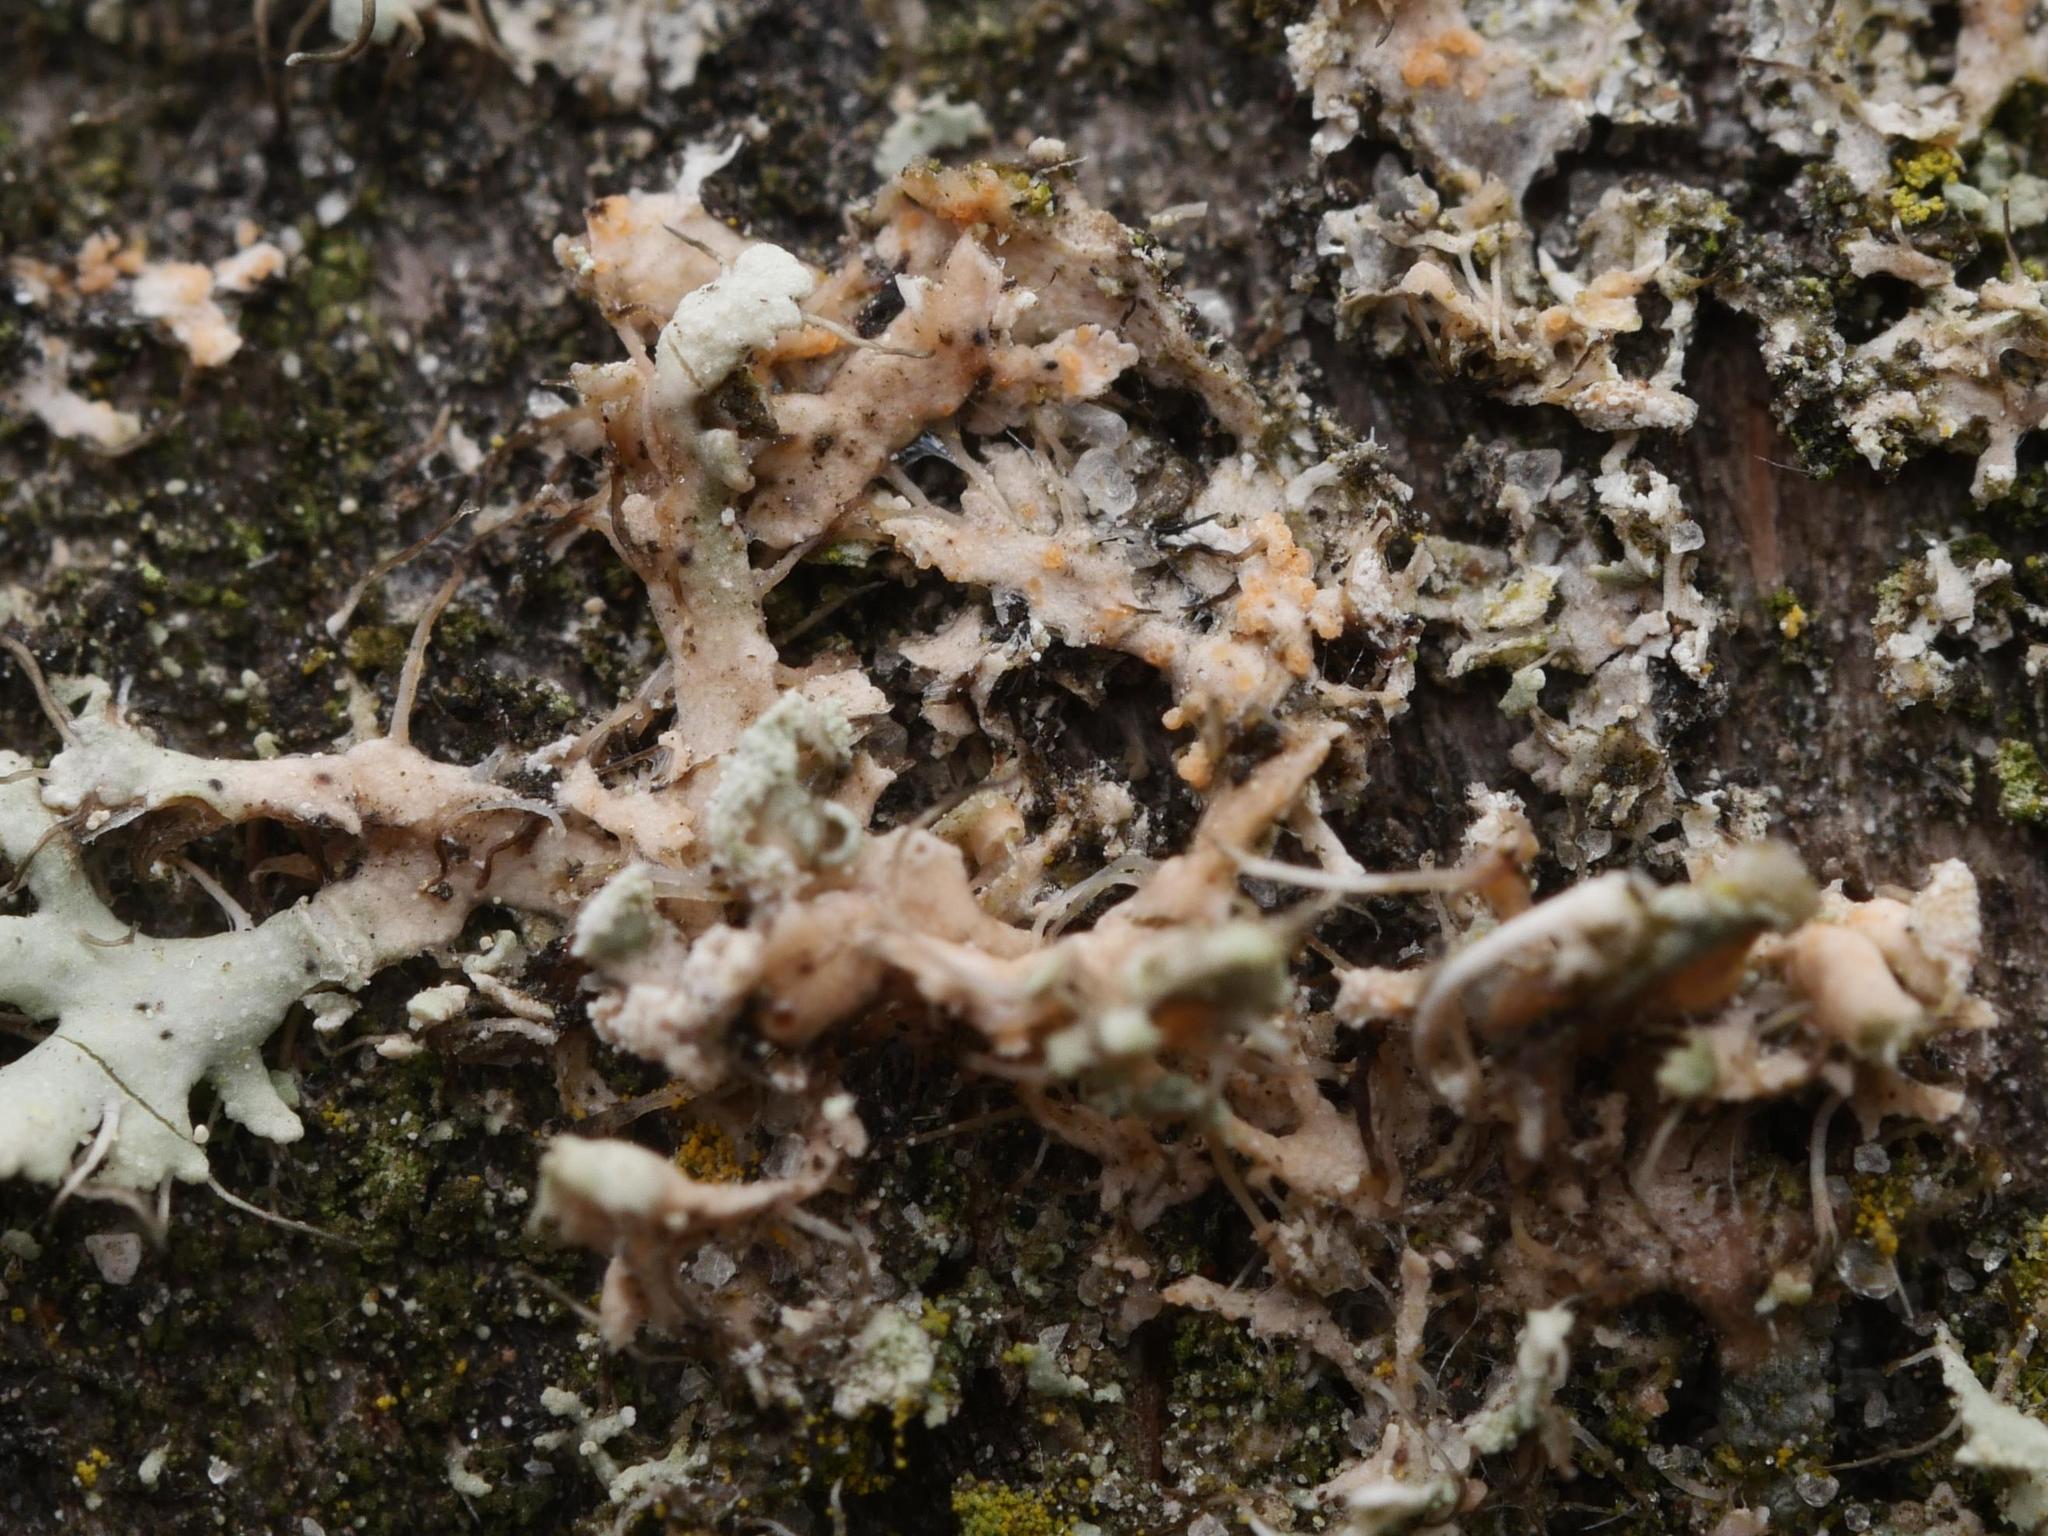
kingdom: Fungi
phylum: Basidiomycota
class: Agaricomycetes
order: Corticiales
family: Corticiaceae
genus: Erythricium
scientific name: Erythricium aurantiacum
